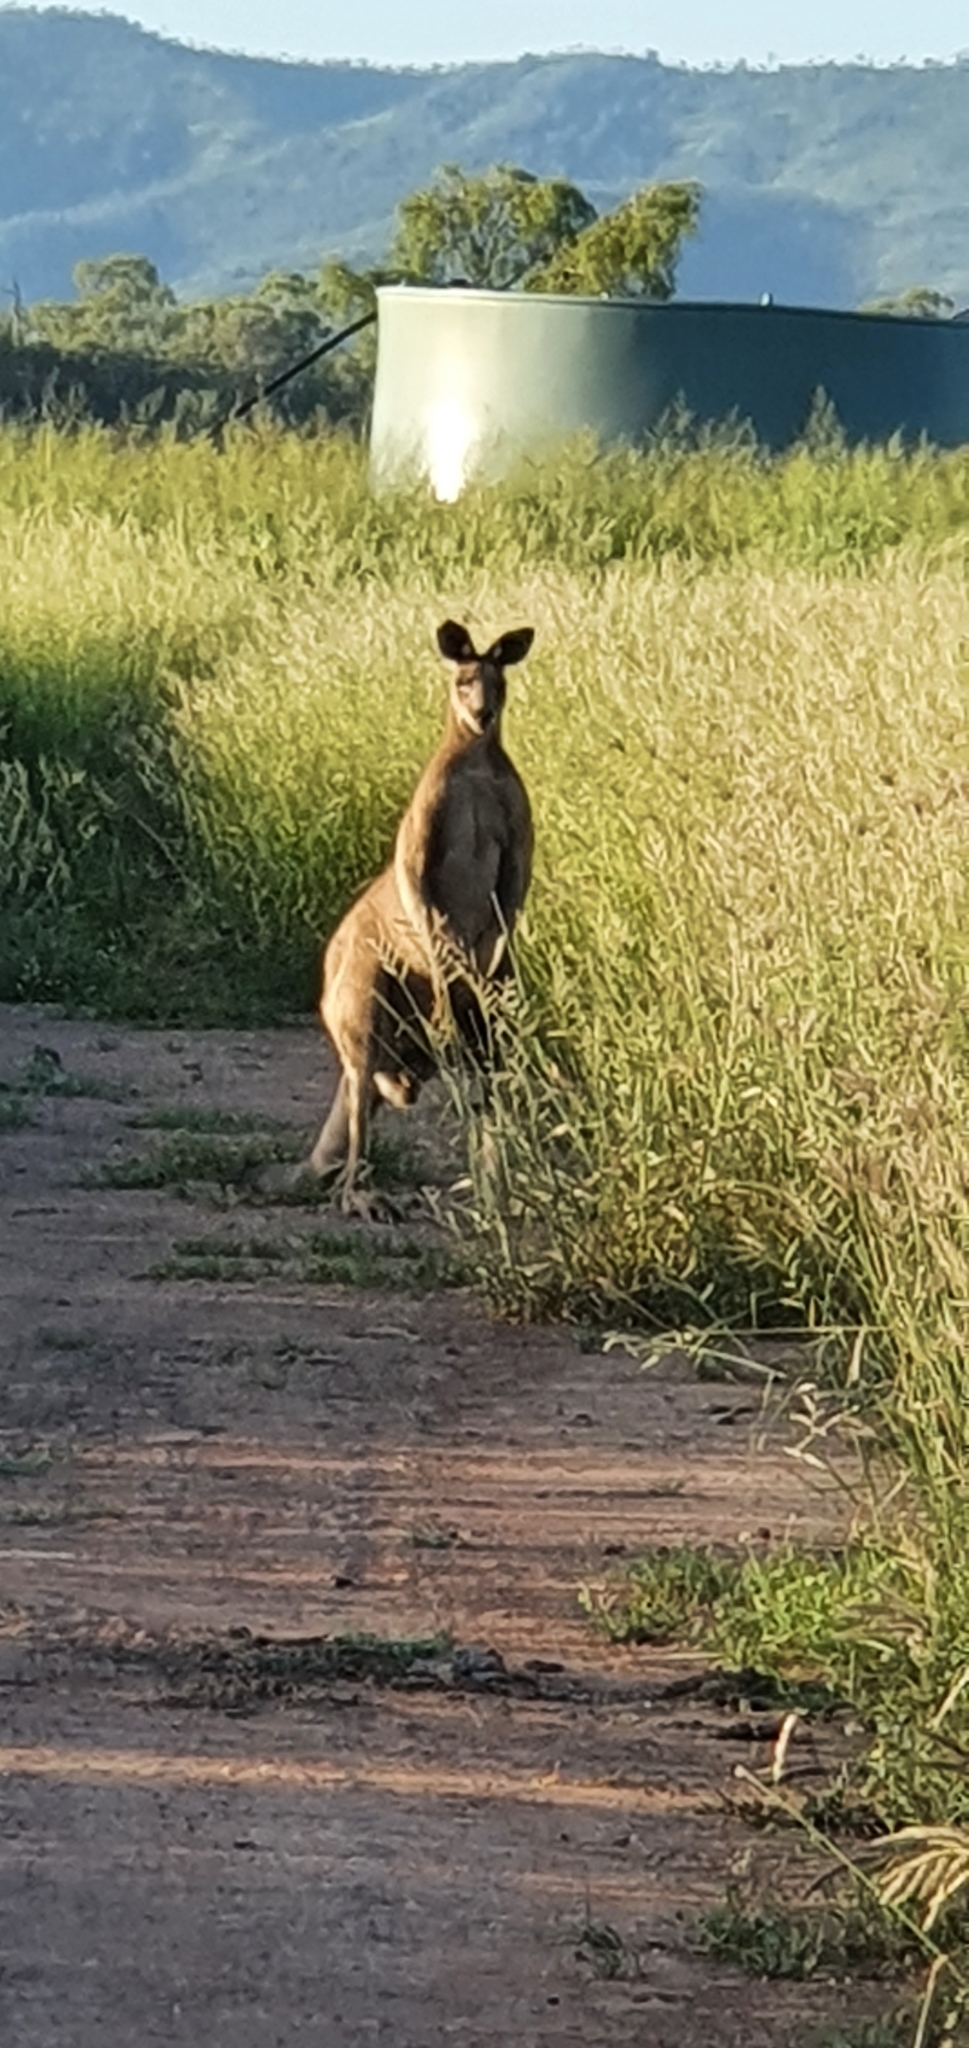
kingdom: Animalia
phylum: Chordata
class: Mammalia
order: Diprotodontia
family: Macropodidae
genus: Macropus
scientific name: Macropus giganteus
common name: Eastern grey kangaroo
